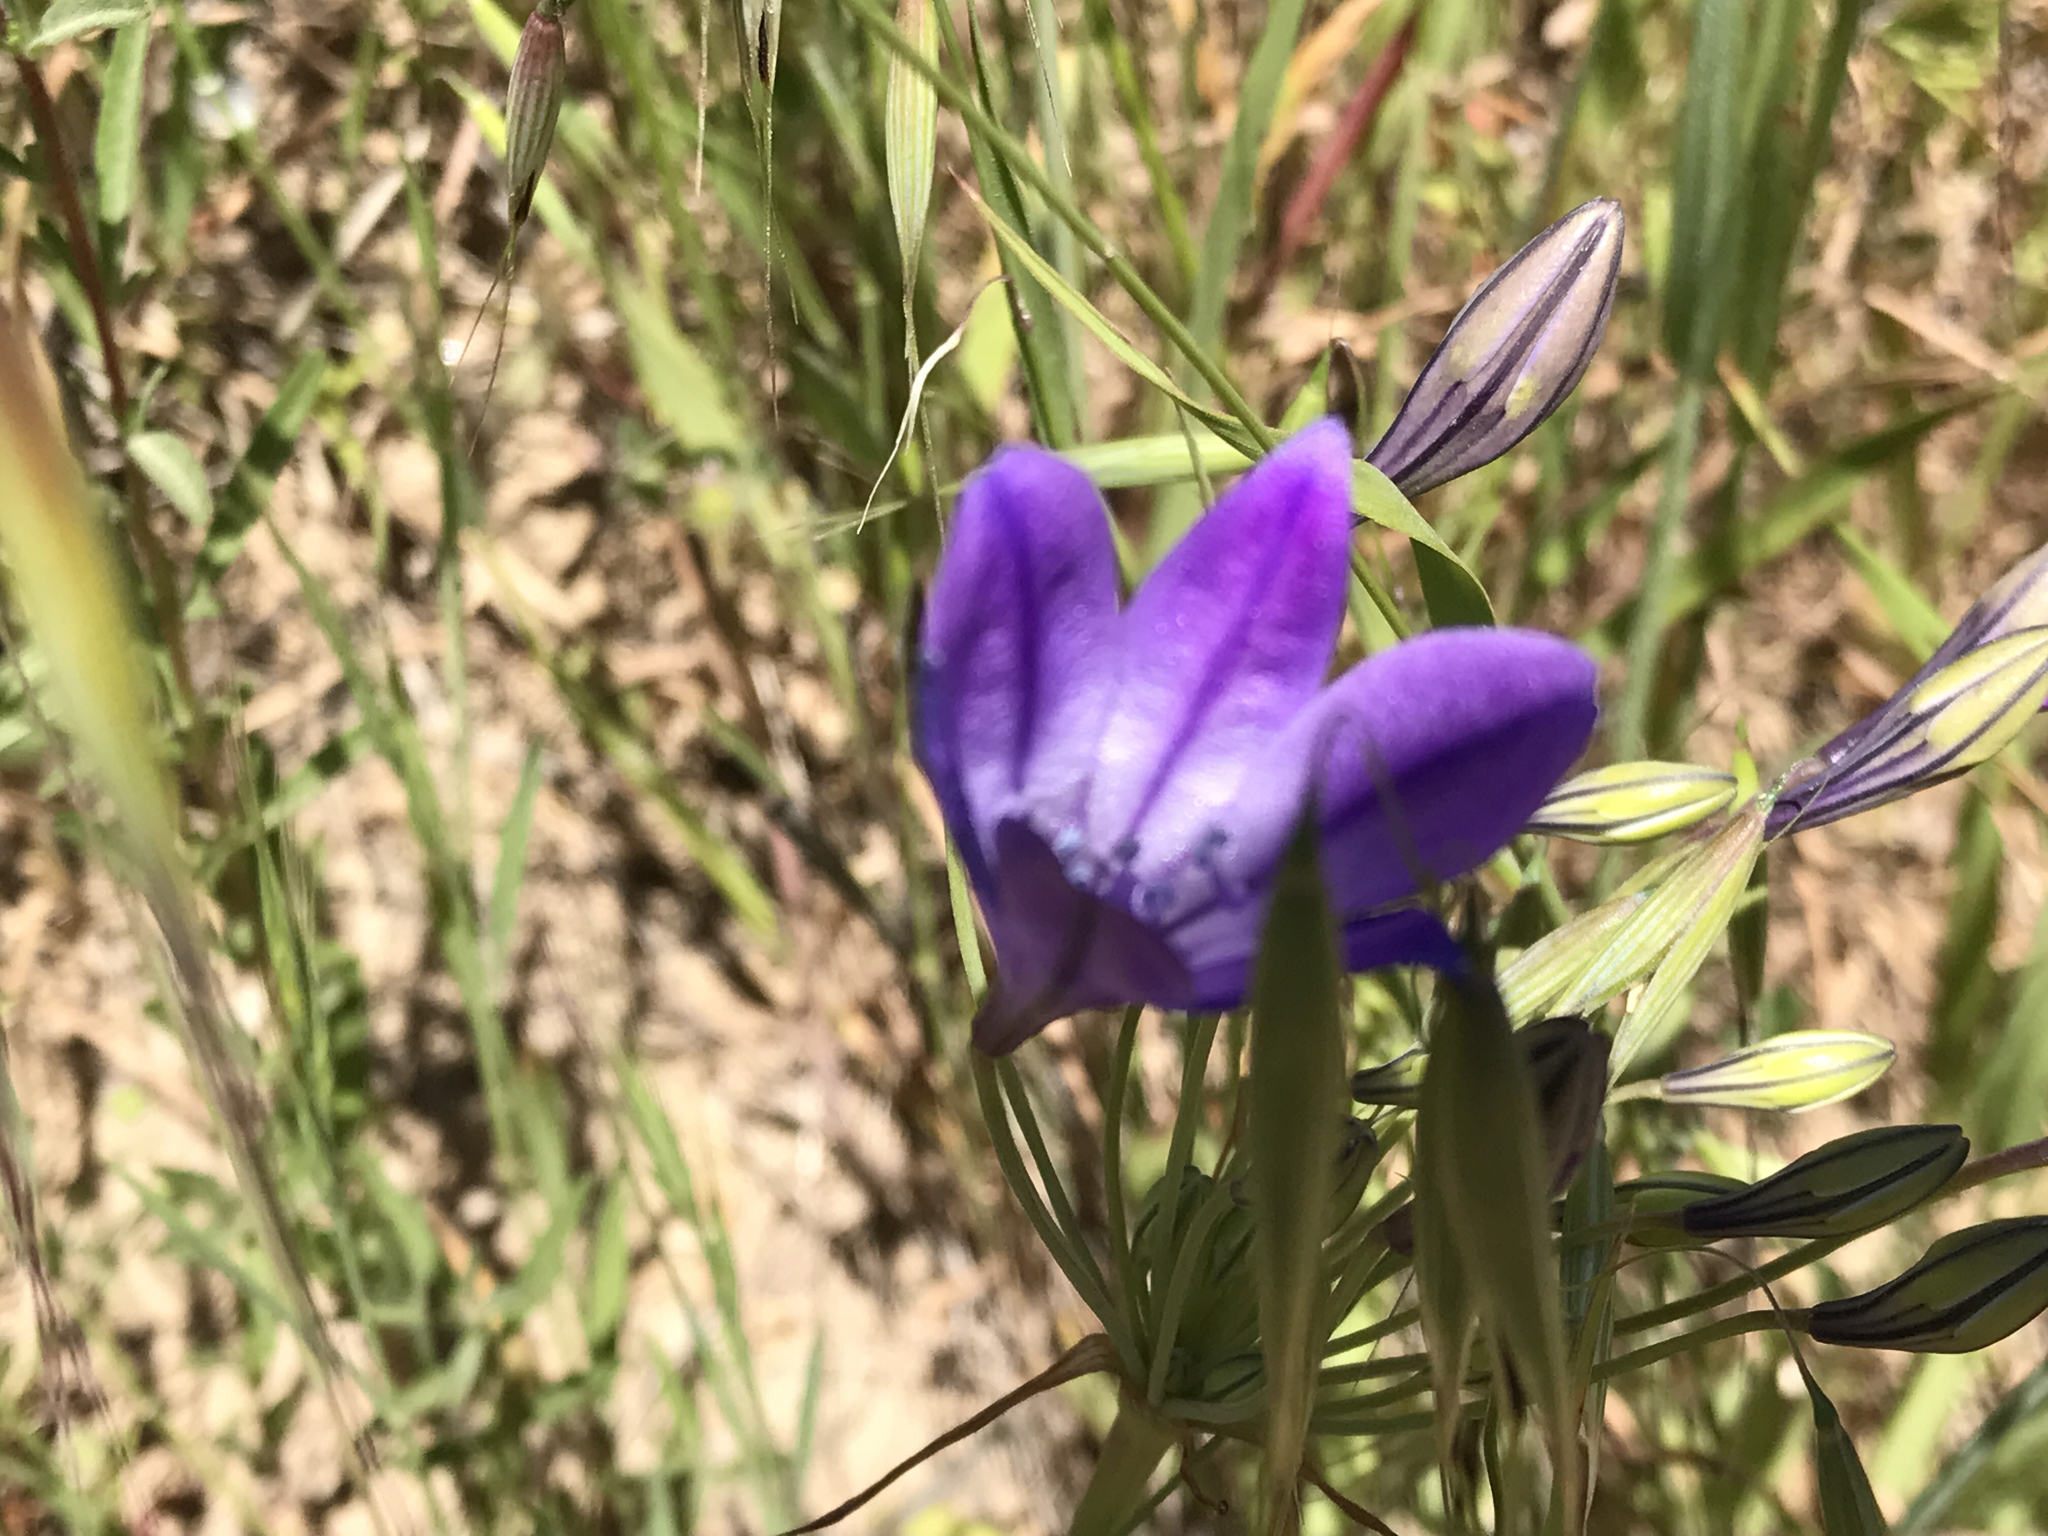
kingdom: Plantae
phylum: Tracheophyta
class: Liliopsida
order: Asparagales
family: Asparagaceae
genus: Triteleia
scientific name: Triteleia laxa
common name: Triplet-lily
